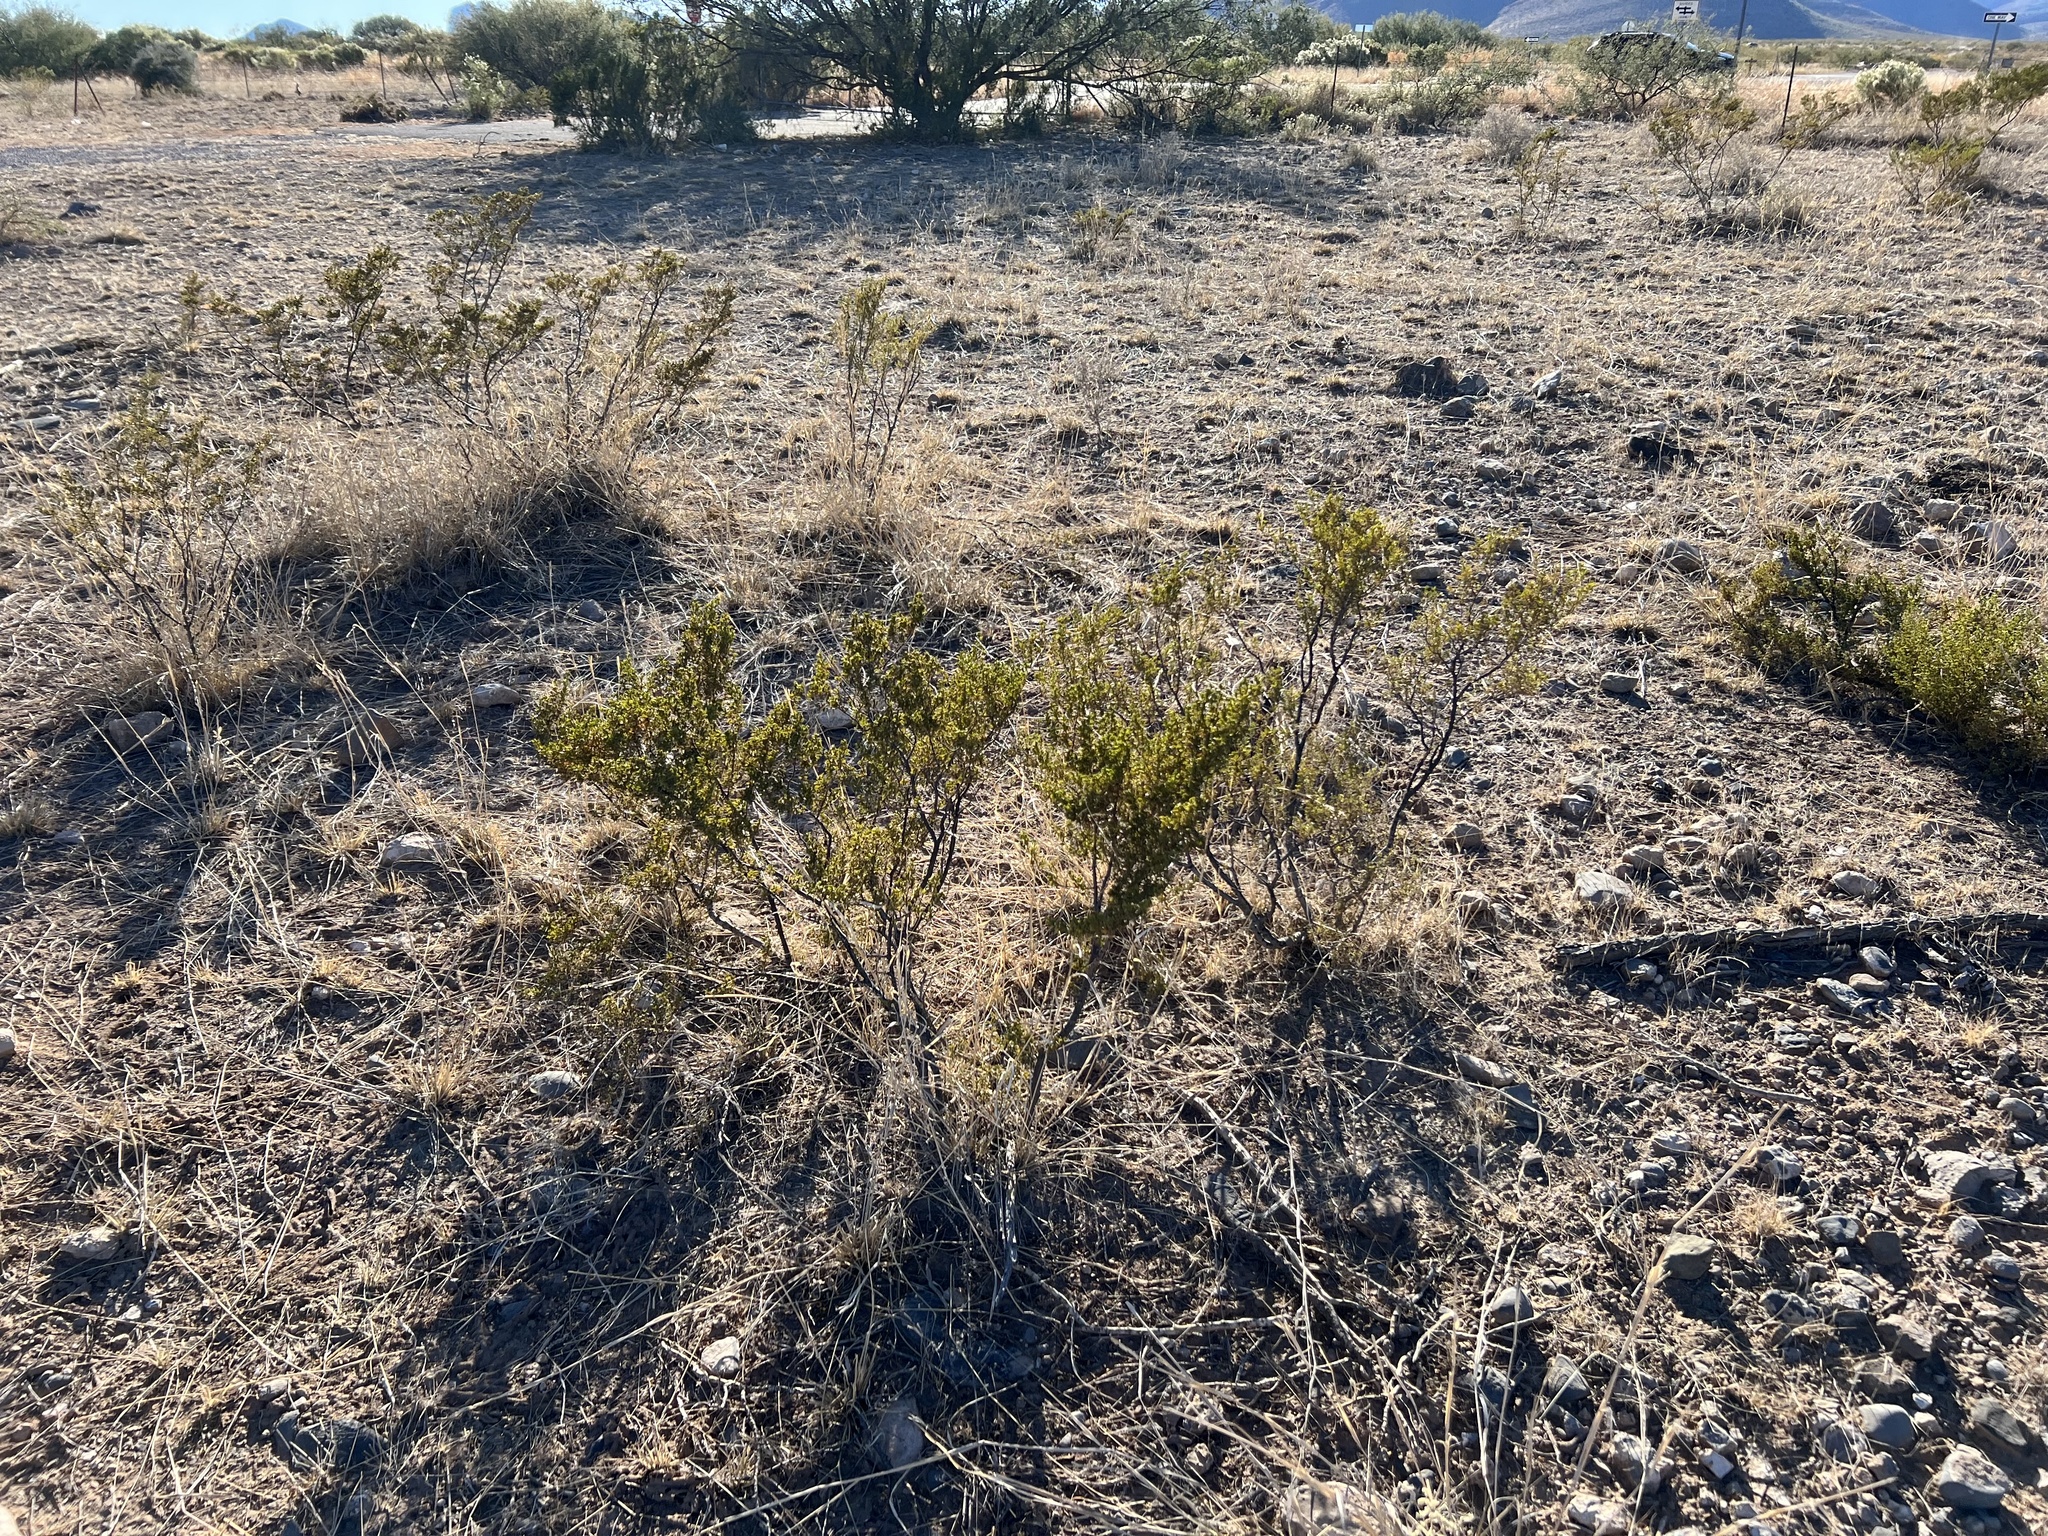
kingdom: Plantae
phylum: Tracheophyta
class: Magnoliopsida
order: Zygophyllales
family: Zygophyllaceae
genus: Larrea
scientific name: Larrea tridentata
